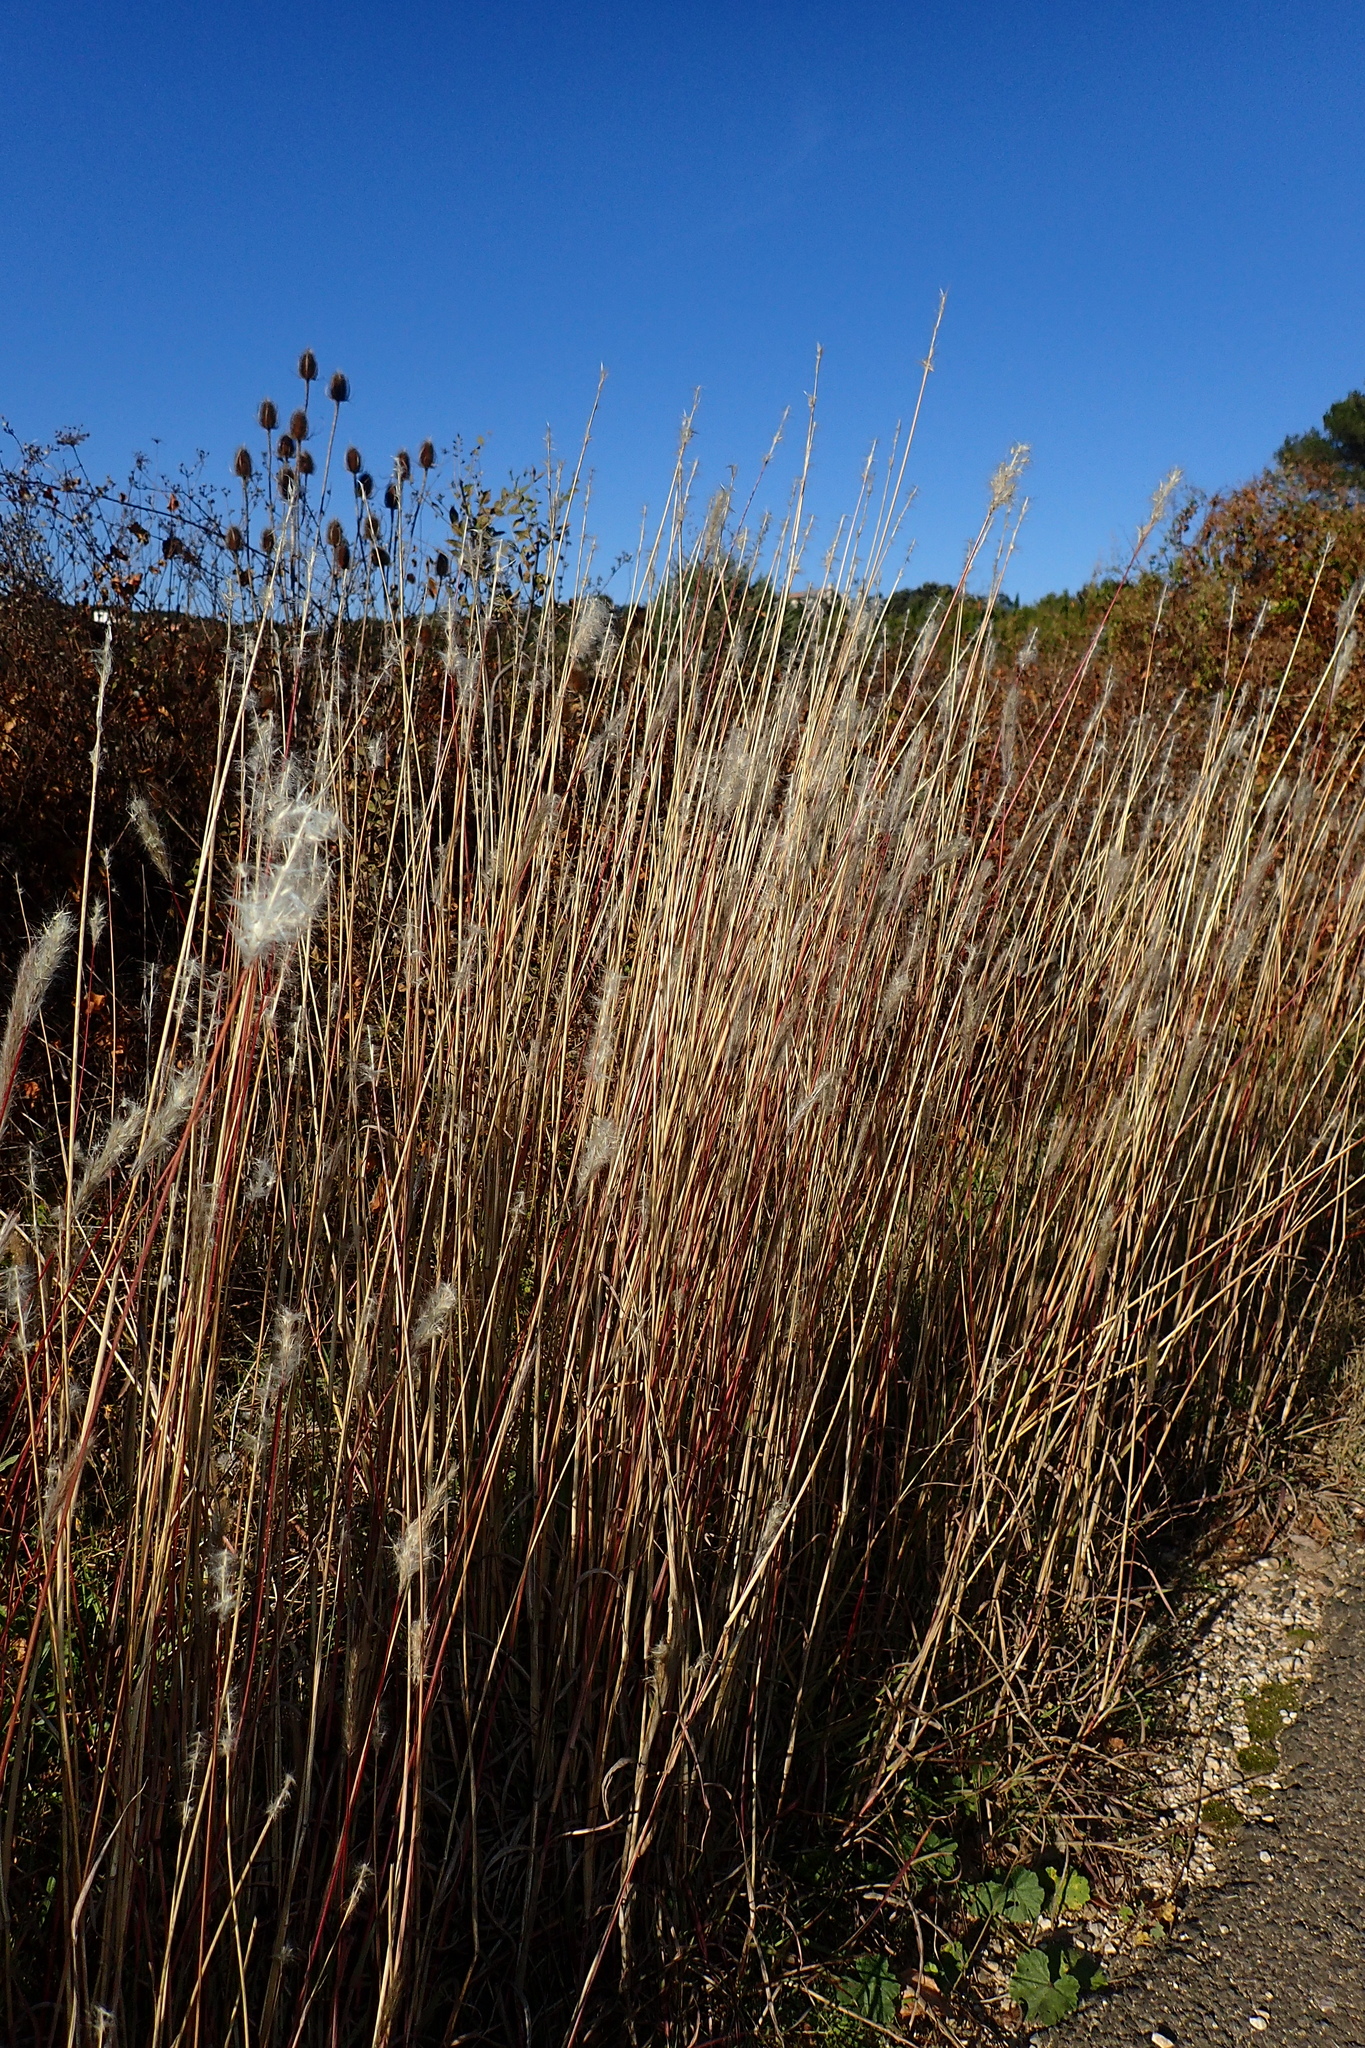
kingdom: Plantae
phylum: Tracheophyta
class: Liliopsida
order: Poales
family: Poaceae
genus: Bothriochloa
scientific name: Bothriochloa barbinodis
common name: Cane bluestem
